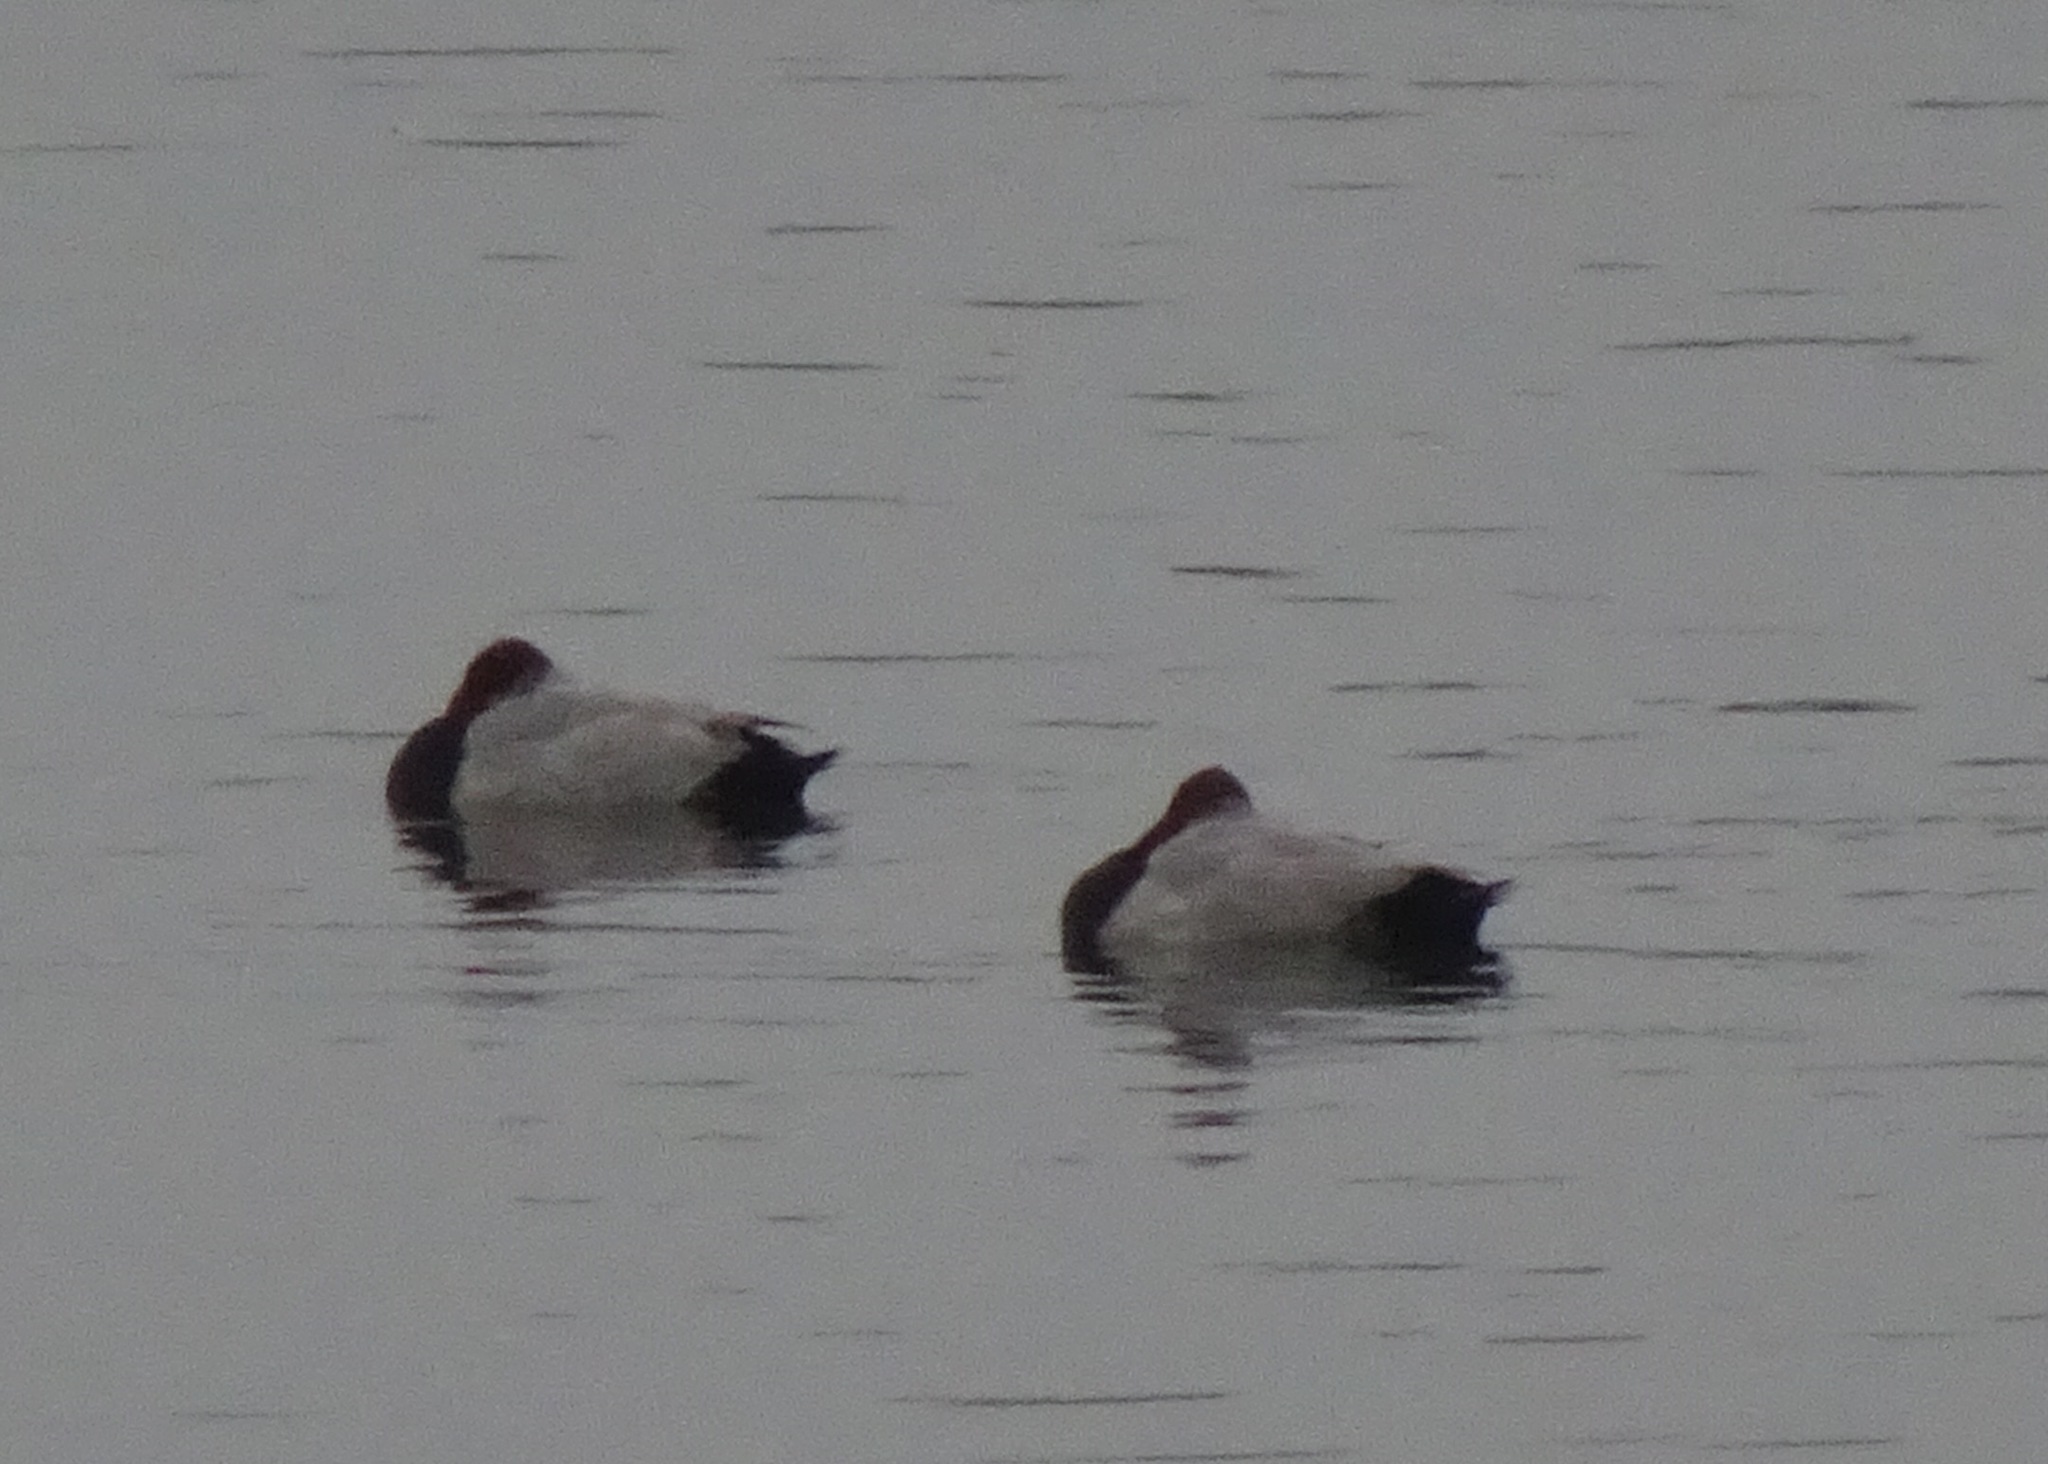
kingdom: Animalia
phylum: Chordata
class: Aves
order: Anseriformes
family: Anatidae
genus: Aythya
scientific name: Aythya ferina
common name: Common pochard
